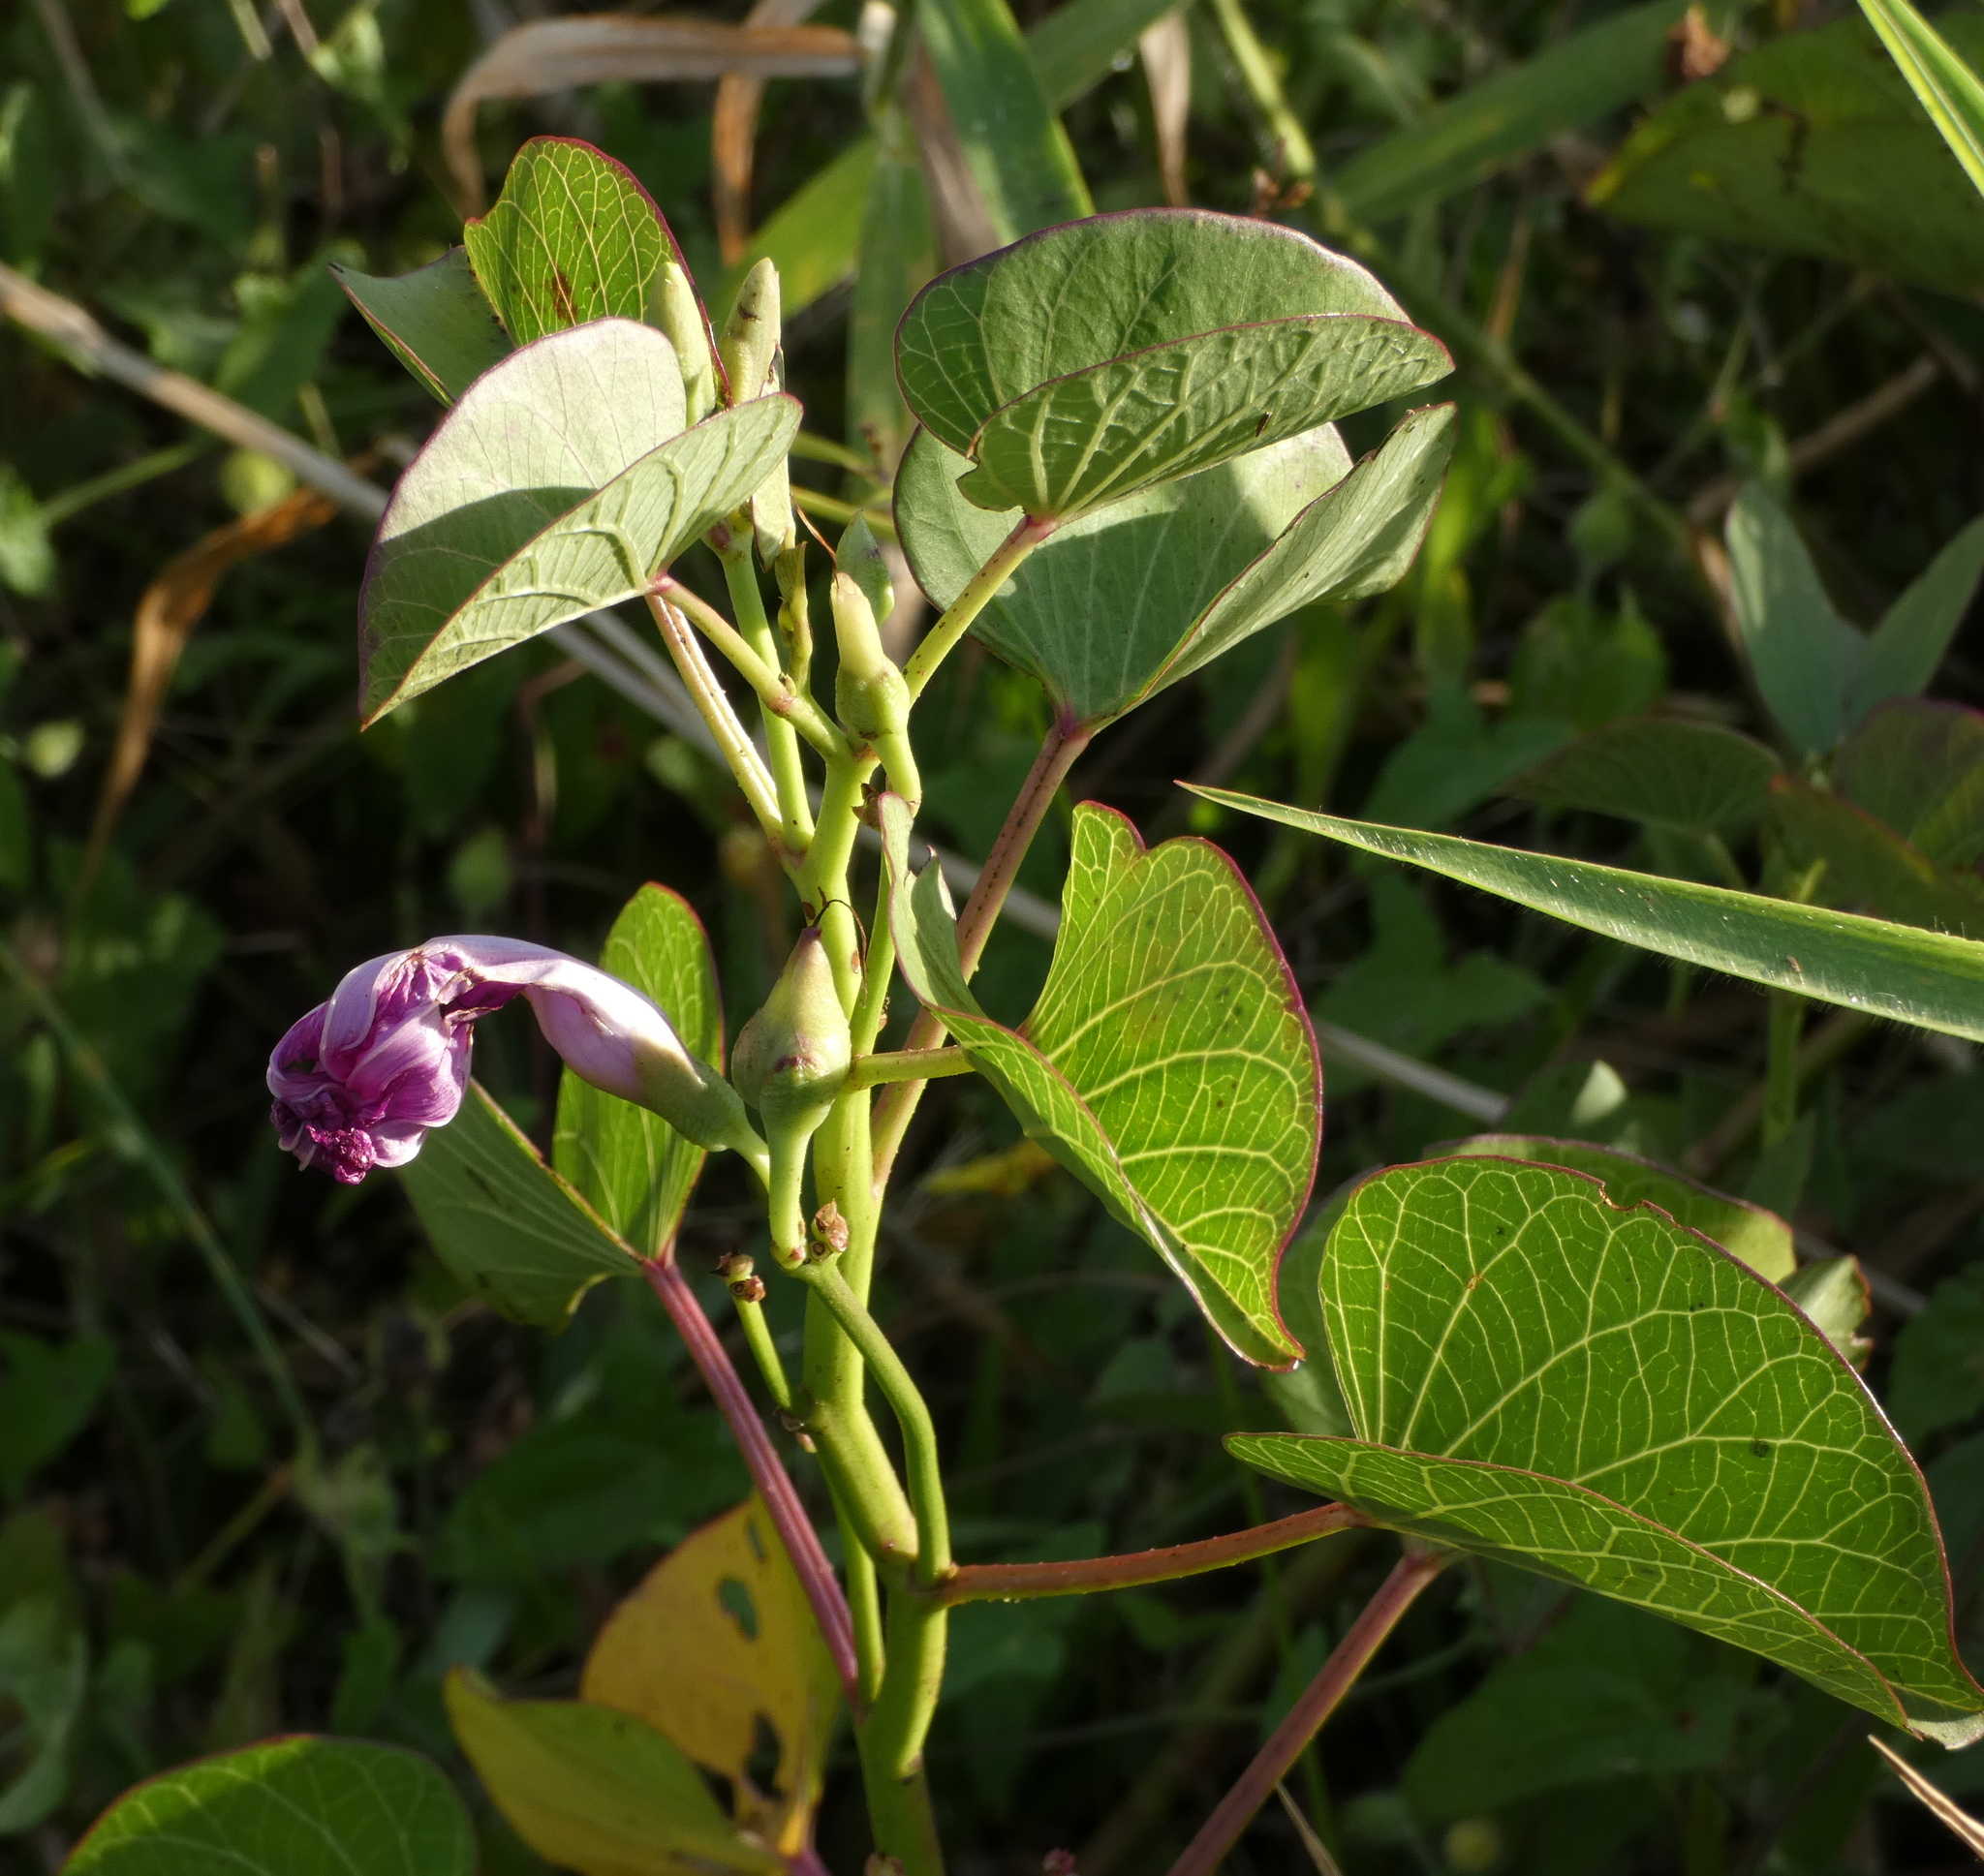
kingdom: Plantae
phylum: Tracheophyta
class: Magnoliopsida
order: Solanales
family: Convolvulaceae
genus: Ipomoea
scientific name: Ipomoea asarifolia
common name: Ginger-leaf morning-glory
